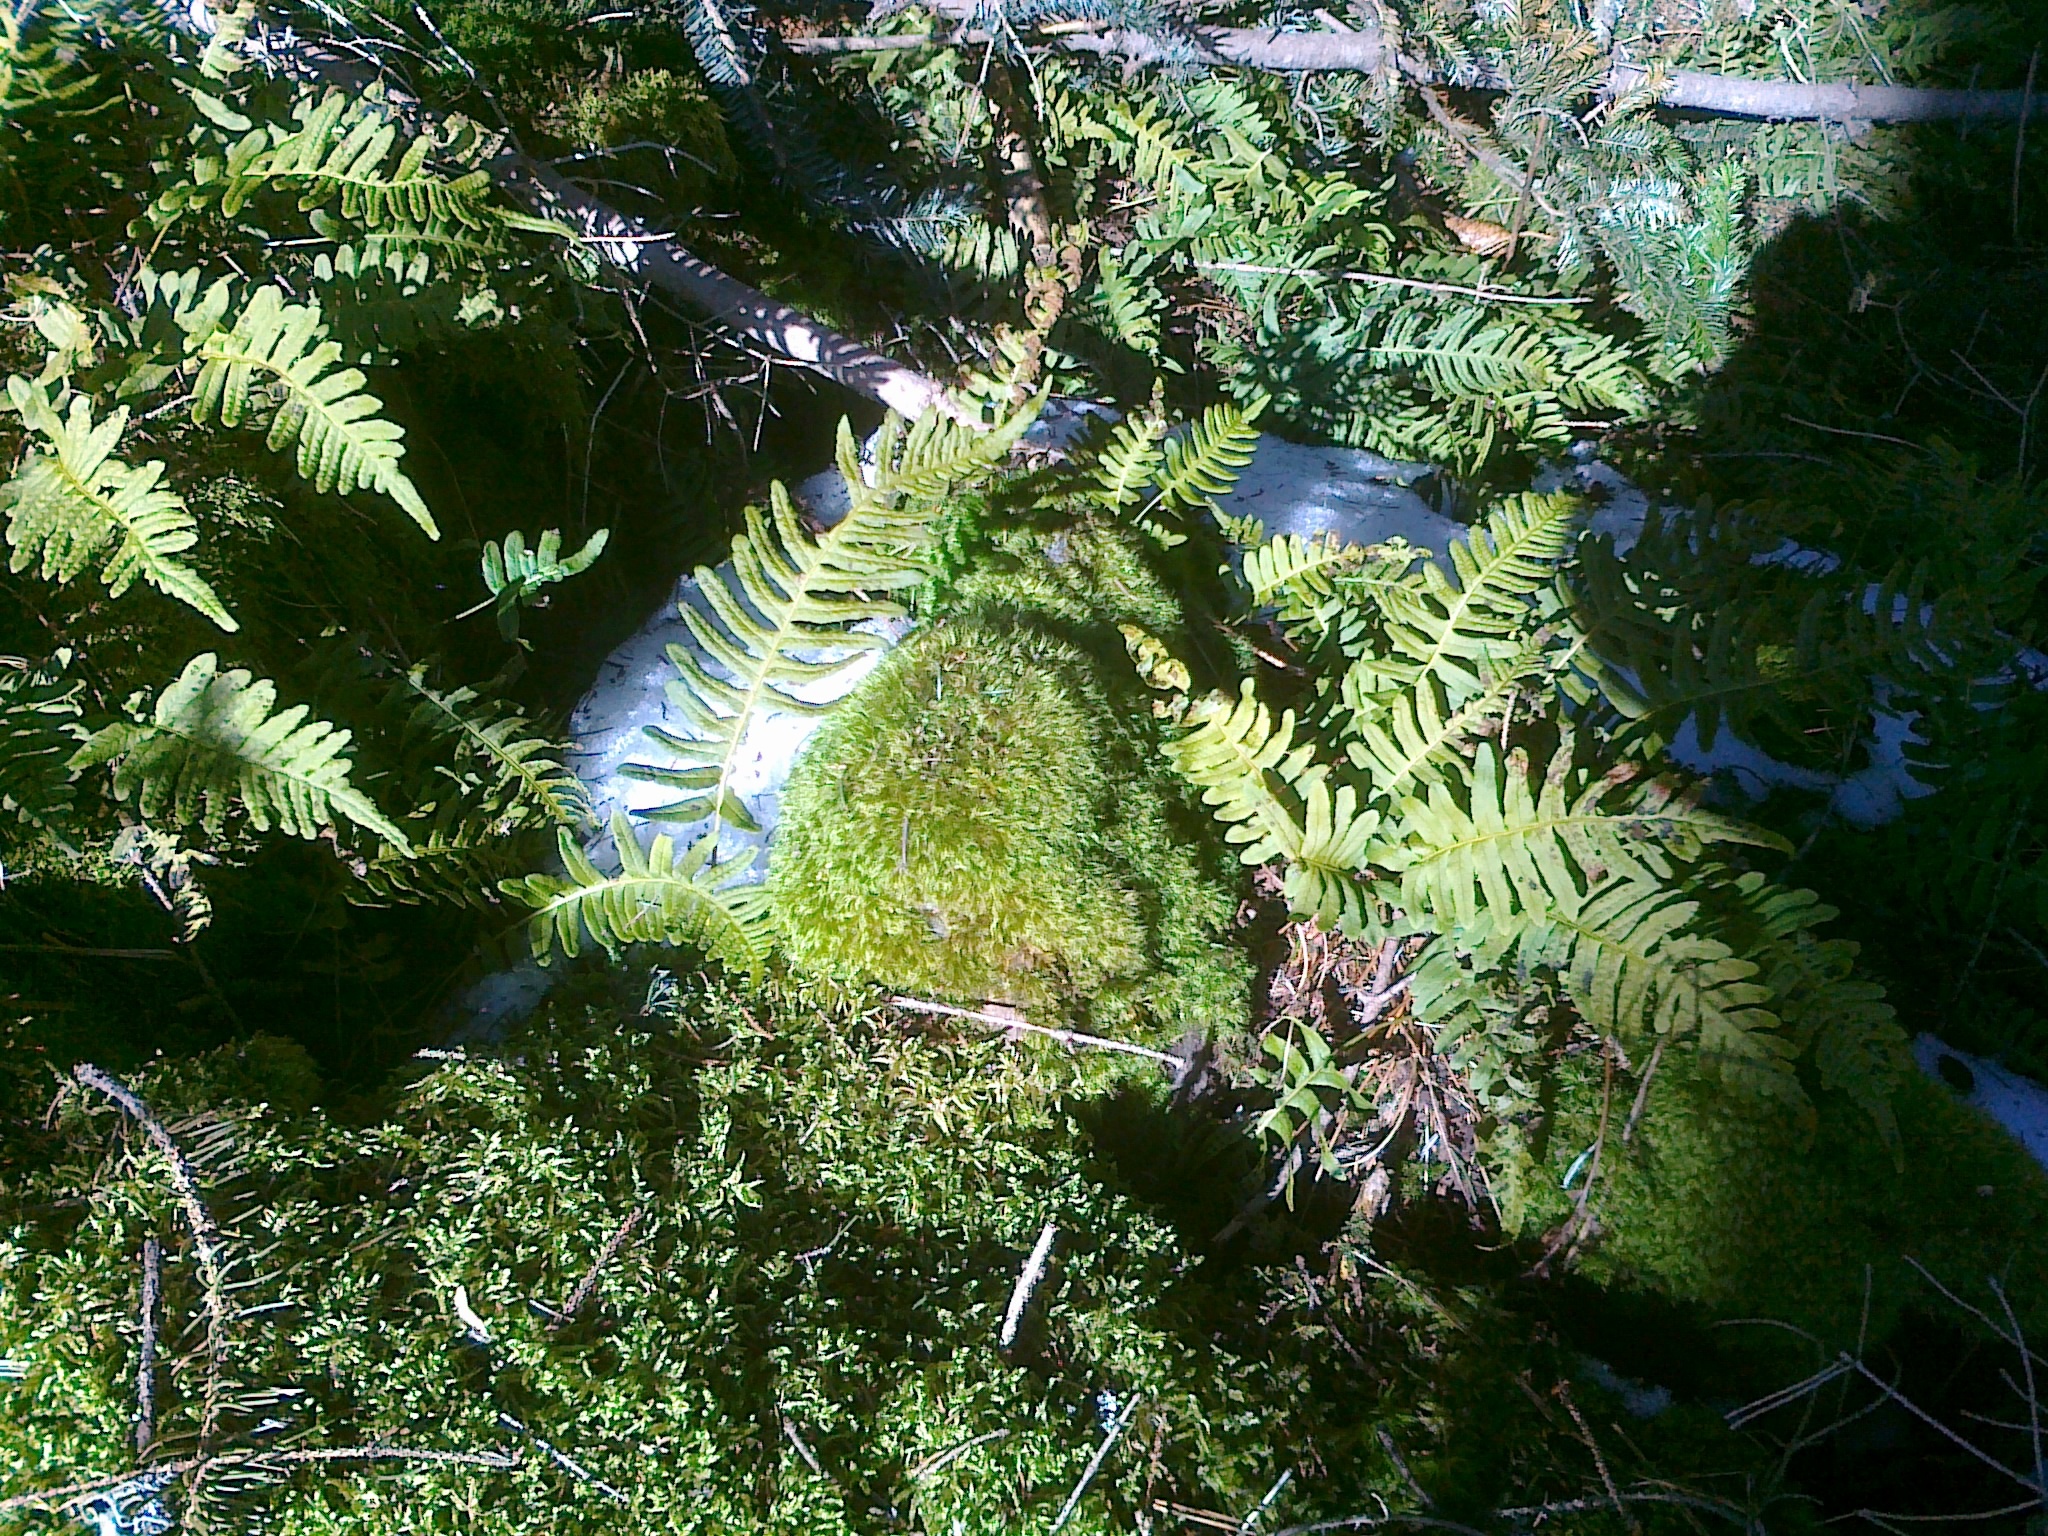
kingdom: Plantae
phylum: Tracheophyta
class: Polypodiopsida
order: Polypodiales
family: Polypodiaceae
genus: Polypodium
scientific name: Polypodium vulgare
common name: Common polypody
